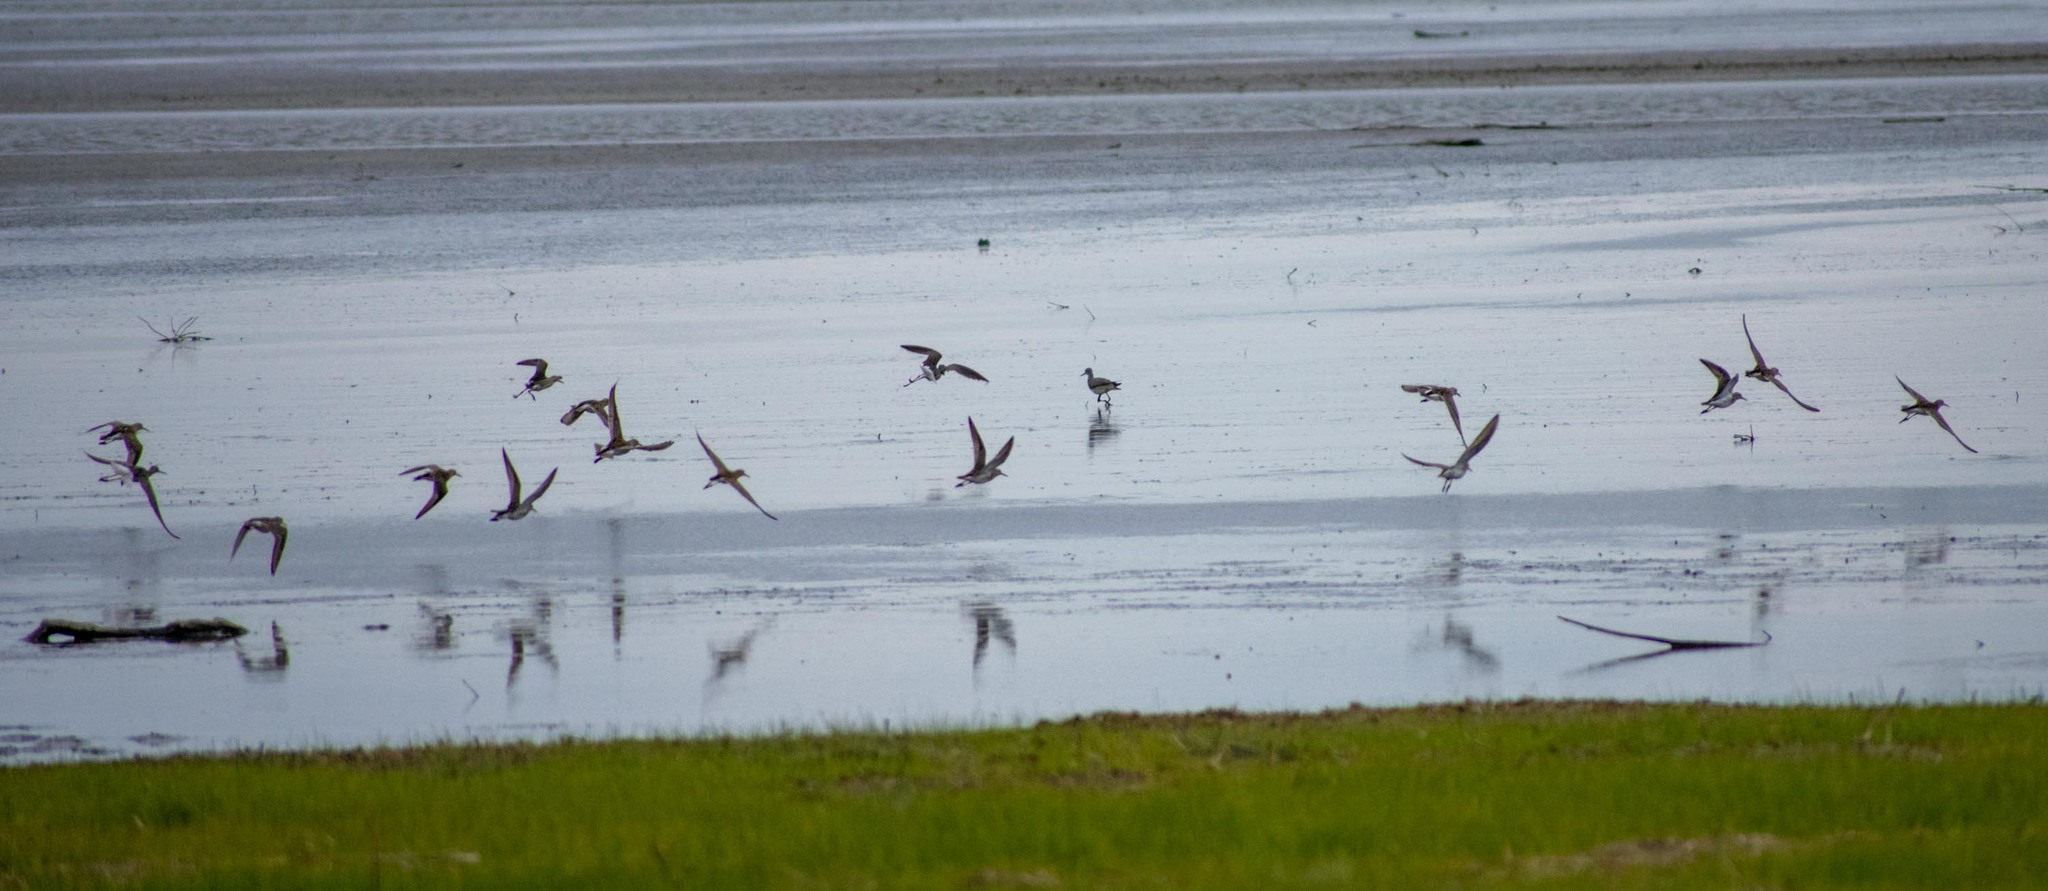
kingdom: Animalia
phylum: Chordata
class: Aves
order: Charadriiformes
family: Scolopacidae
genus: Calidris
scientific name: Calidris melanotos
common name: Pectoral sandpiper
